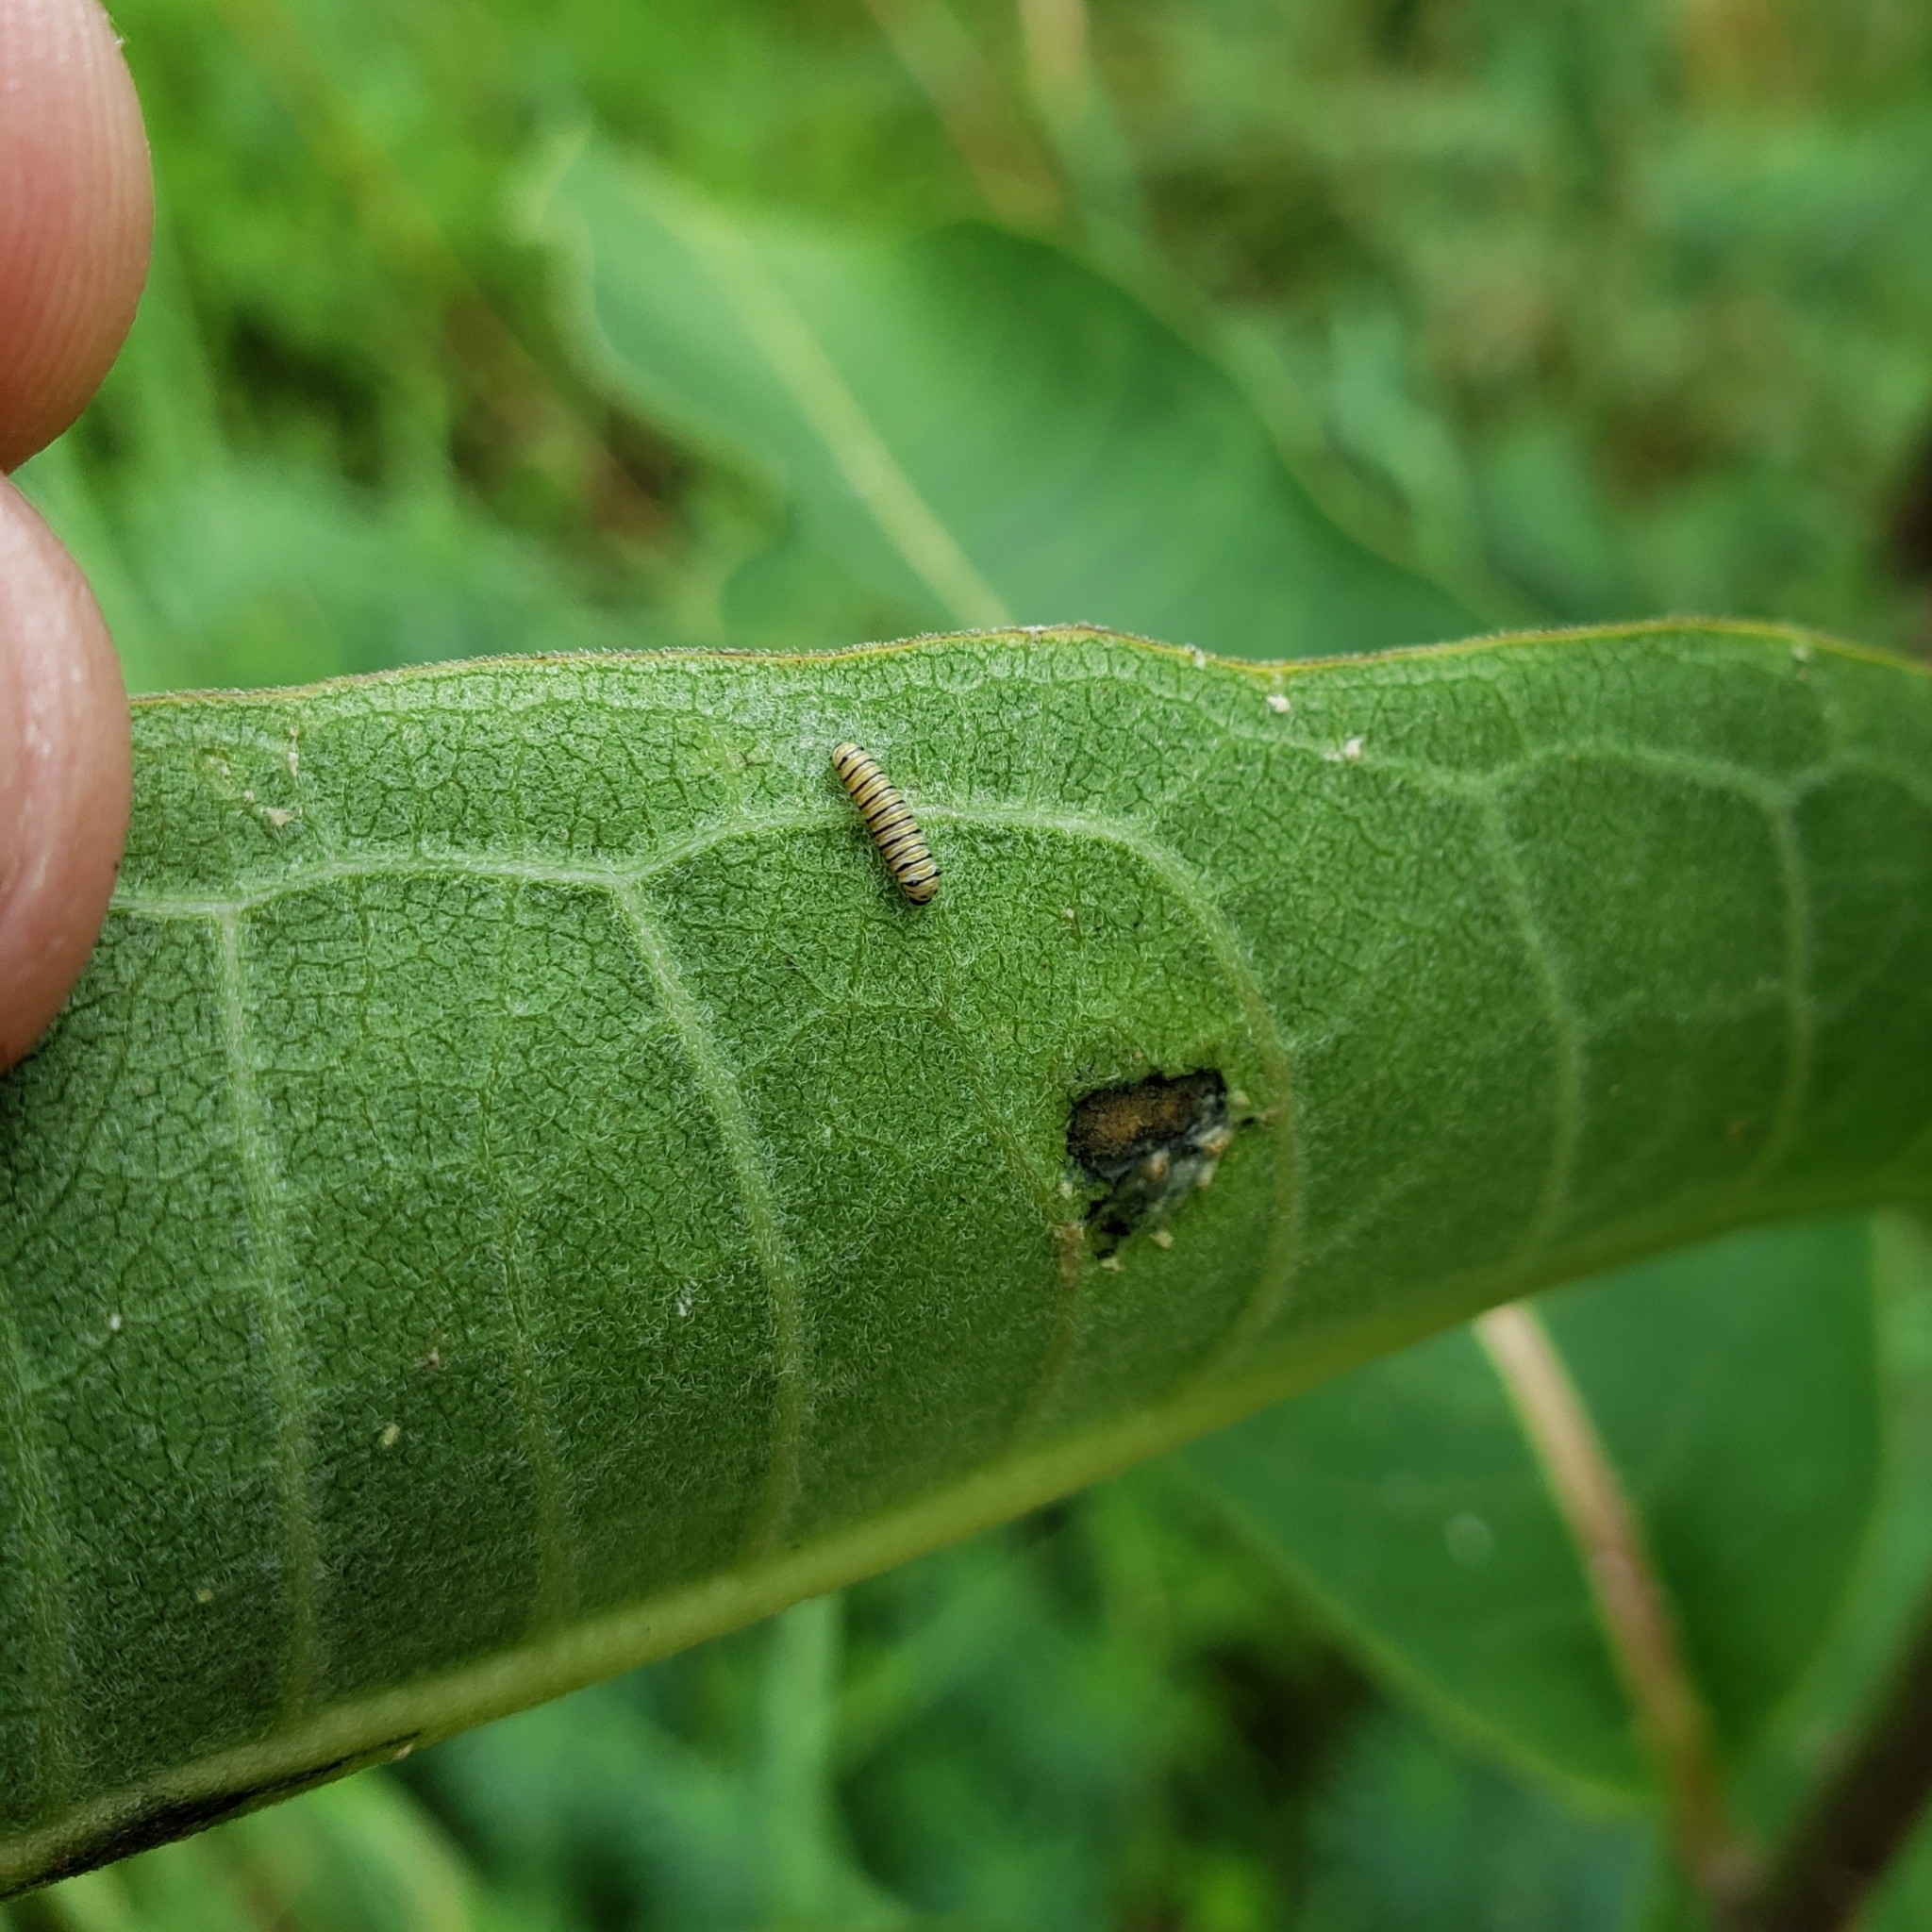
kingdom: Animalia
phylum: Arthropoda
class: Insecta
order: Lepidoptera
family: Nymphalidae
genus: Danaus
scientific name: Danaus plexippus
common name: Monarch
